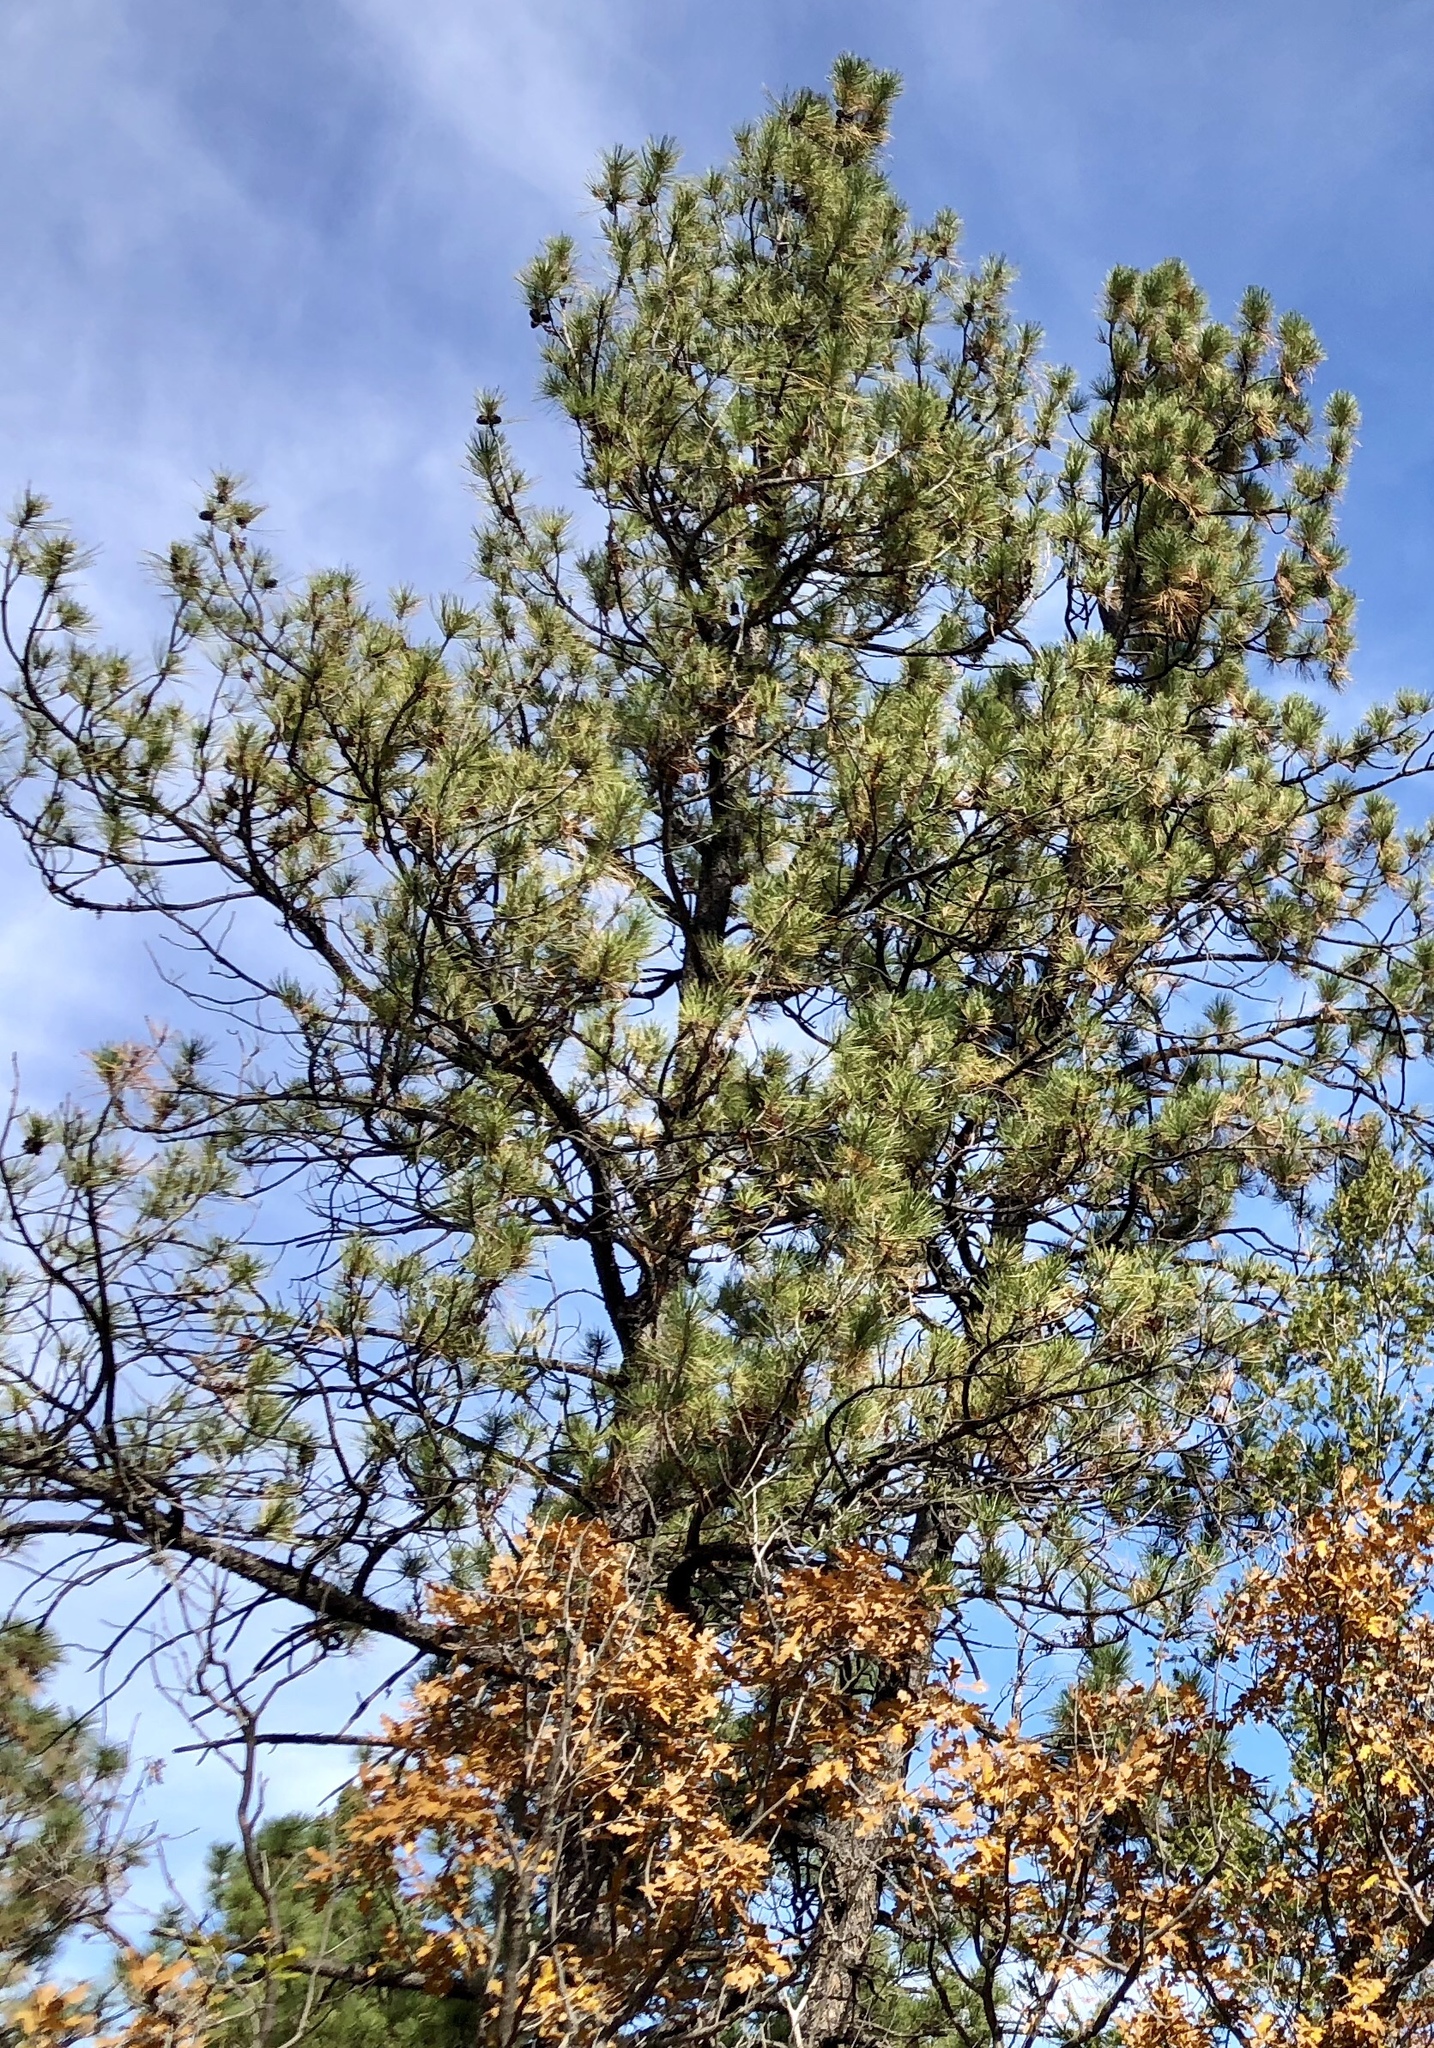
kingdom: Plantae
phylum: Tracheophyta
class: Pinopsida
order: Pinales
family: Pinaceae
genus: Pinus
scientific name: Pinus ponderosa
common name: Western yellow-pine
